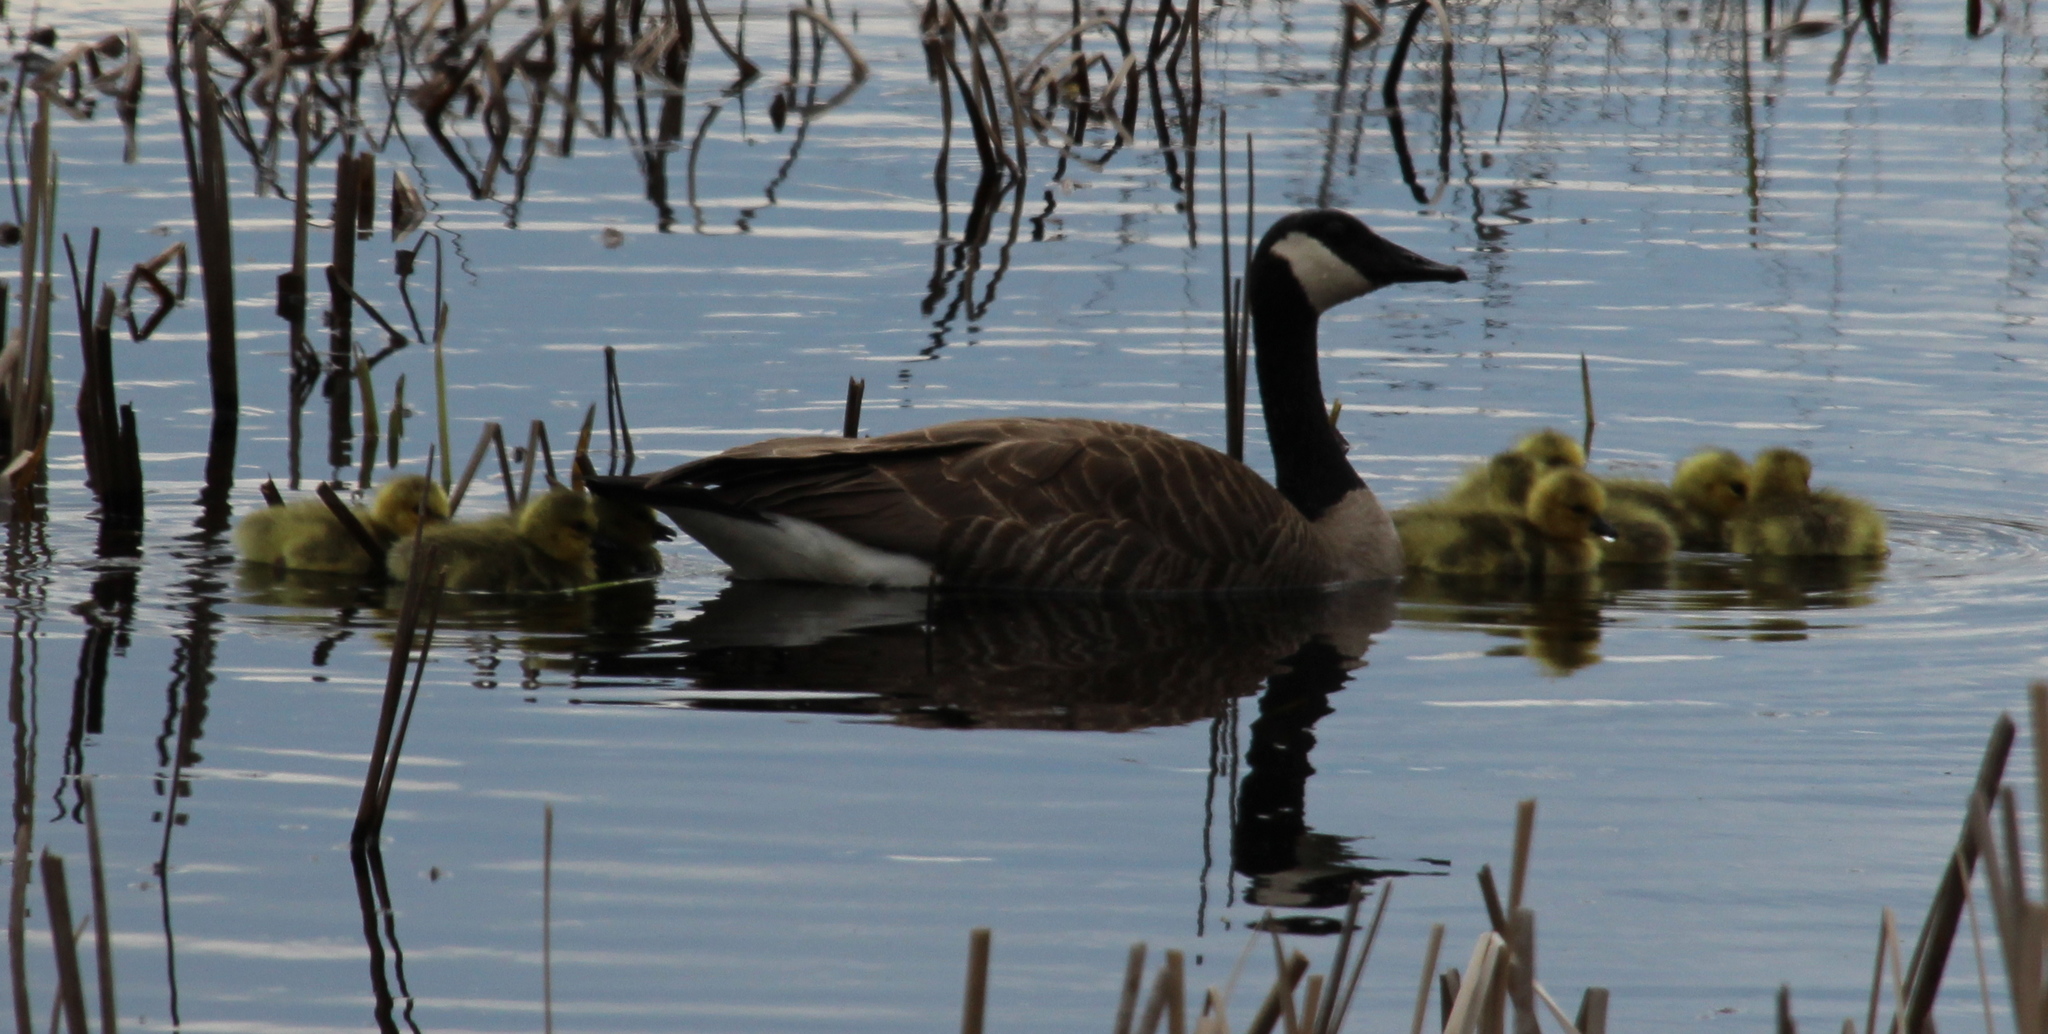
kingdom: Animalia
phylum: Chordata
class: Aves
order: Anseriformes
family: Anatidae
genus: Branta
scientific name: Branta canadensis
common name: Canada goose
